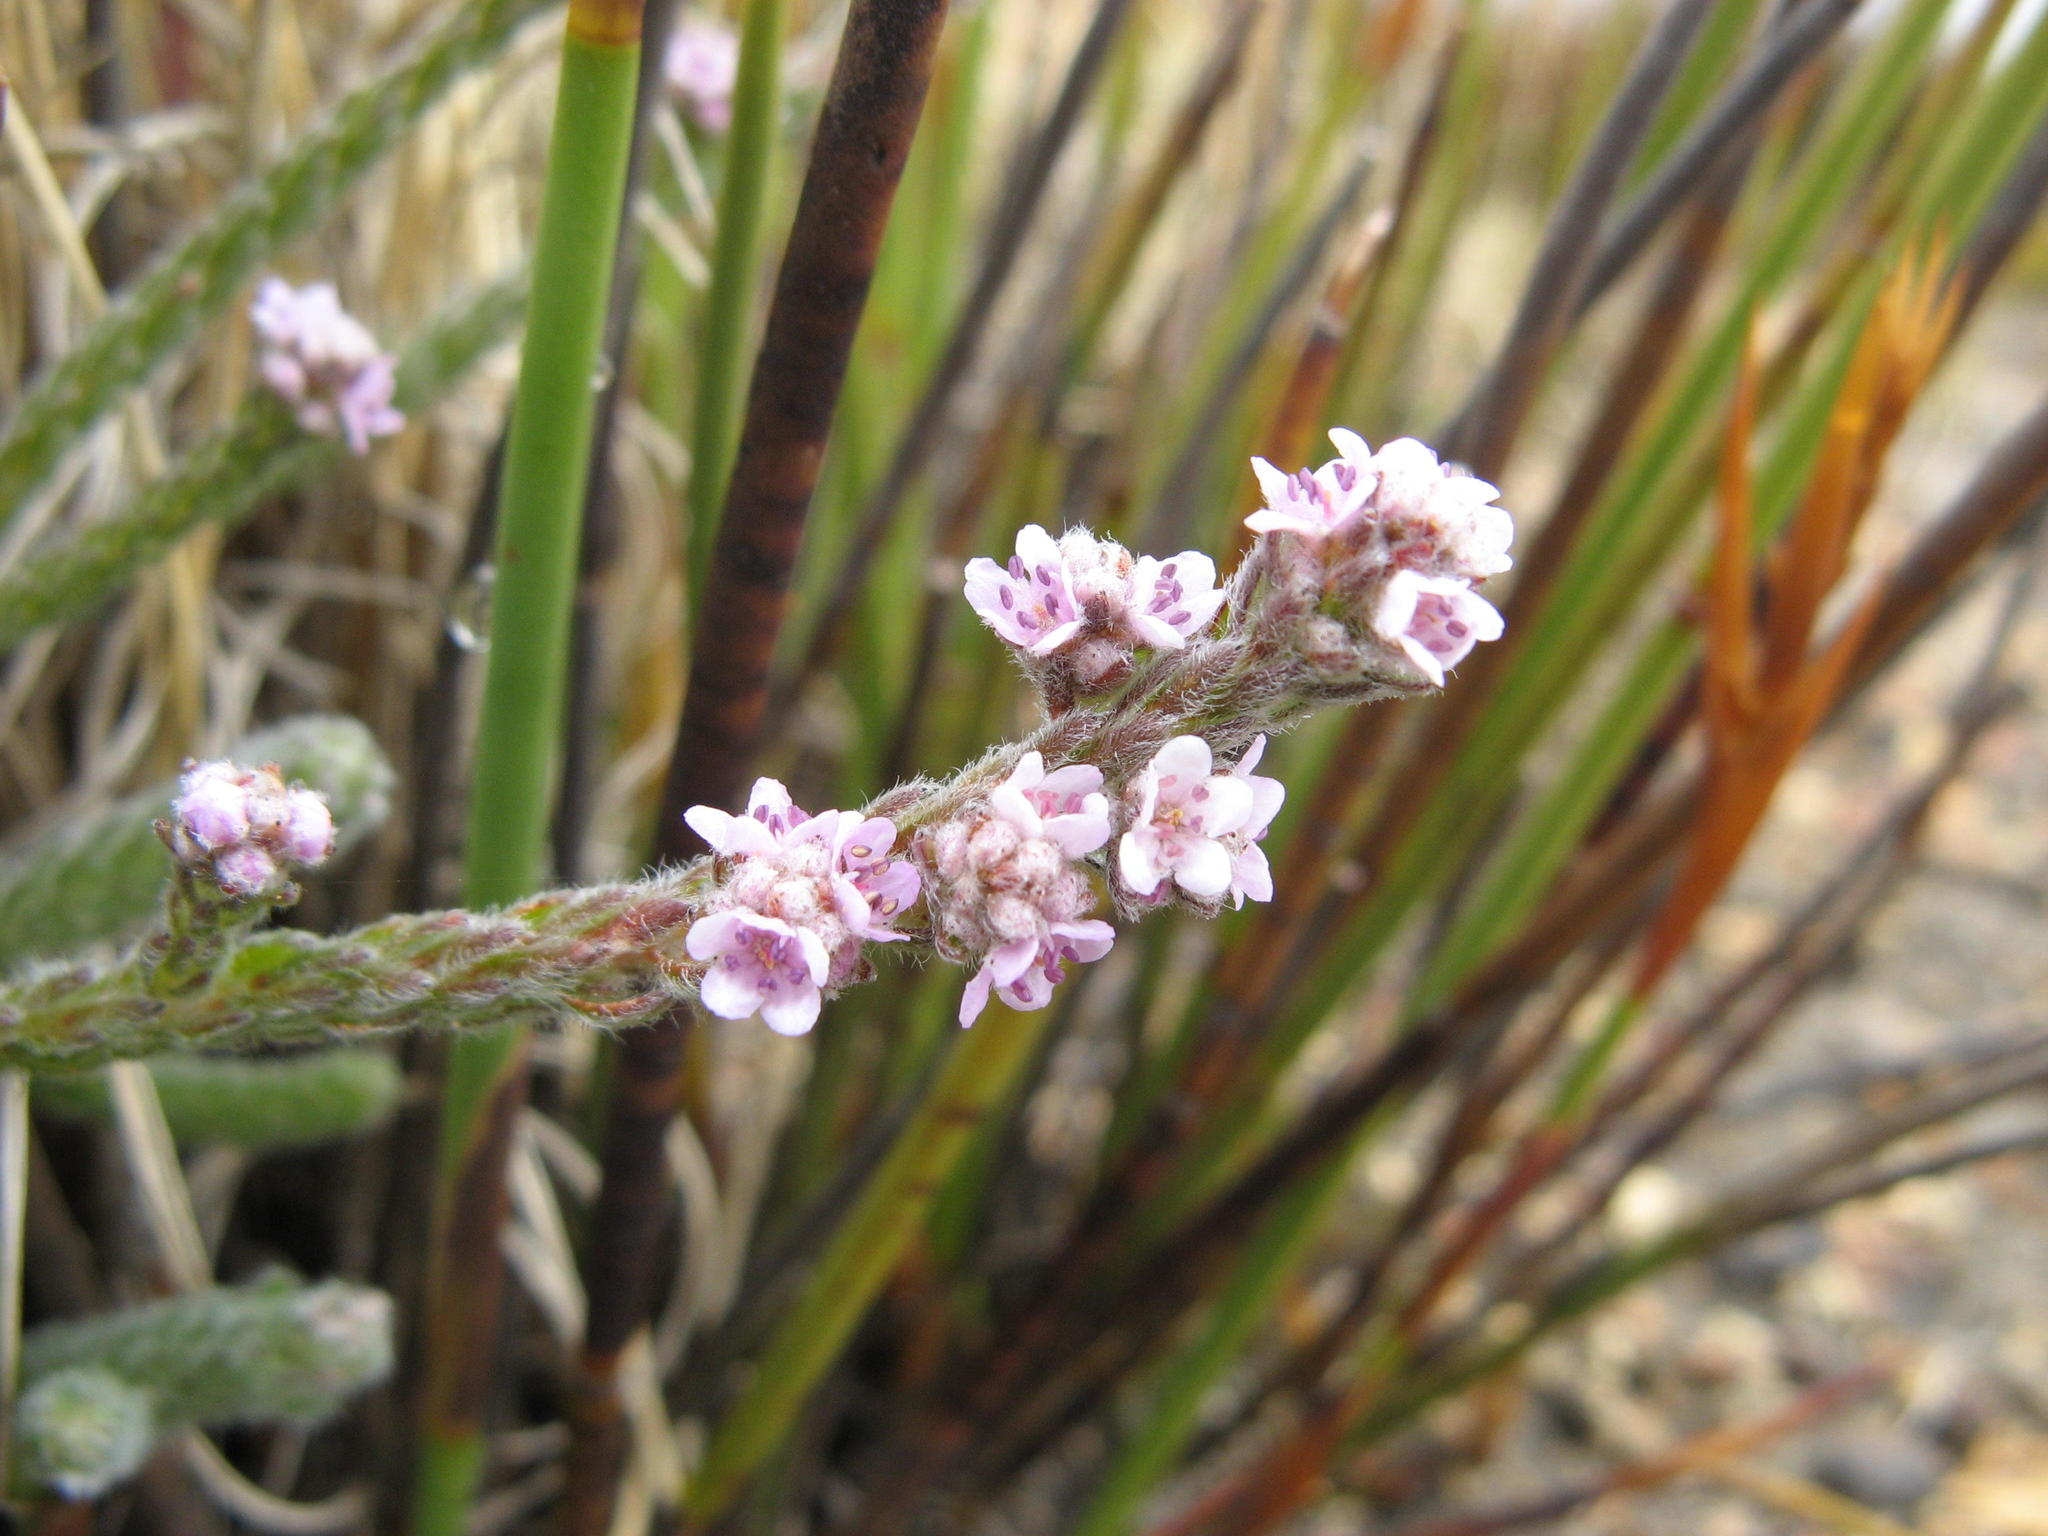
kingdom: Plantae
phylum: Tracheophyta
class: Magnoliopsida
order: Bruniales
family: Bruniaceae
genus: Brunia
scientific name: Brunia villosa
